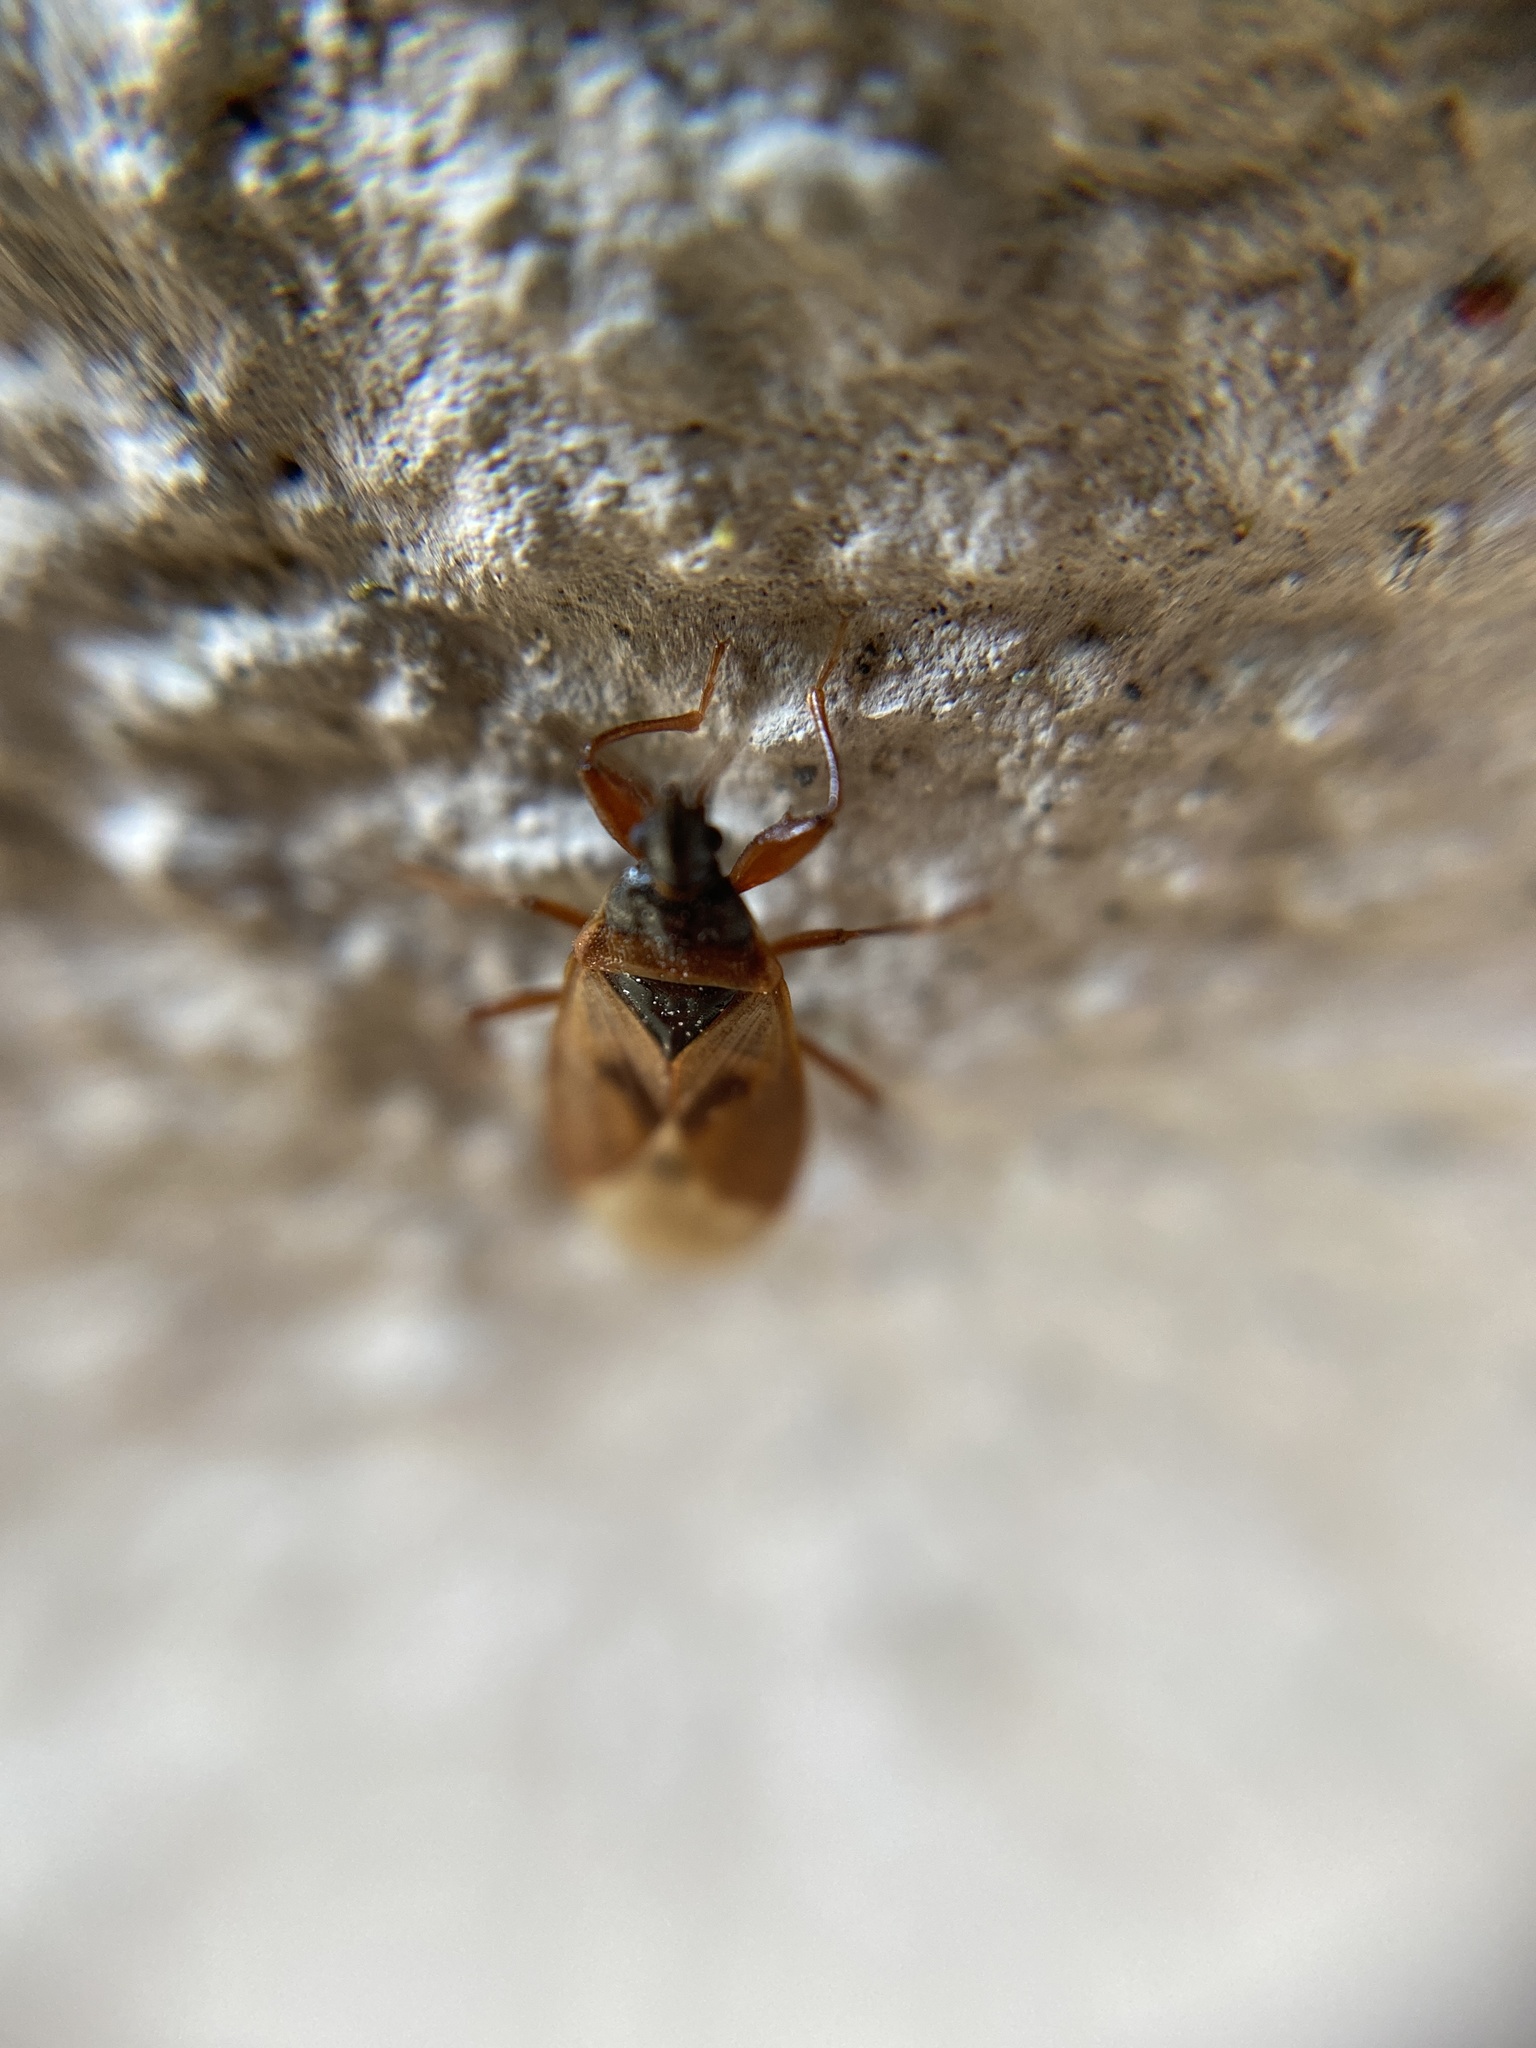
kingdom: Animalia
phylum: Arthropoda
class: Insecta
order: Hemiptera
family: Rhyparochromidae
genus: Gastrodes
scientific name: Gastrodes abietum
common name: Spruce cone bug
